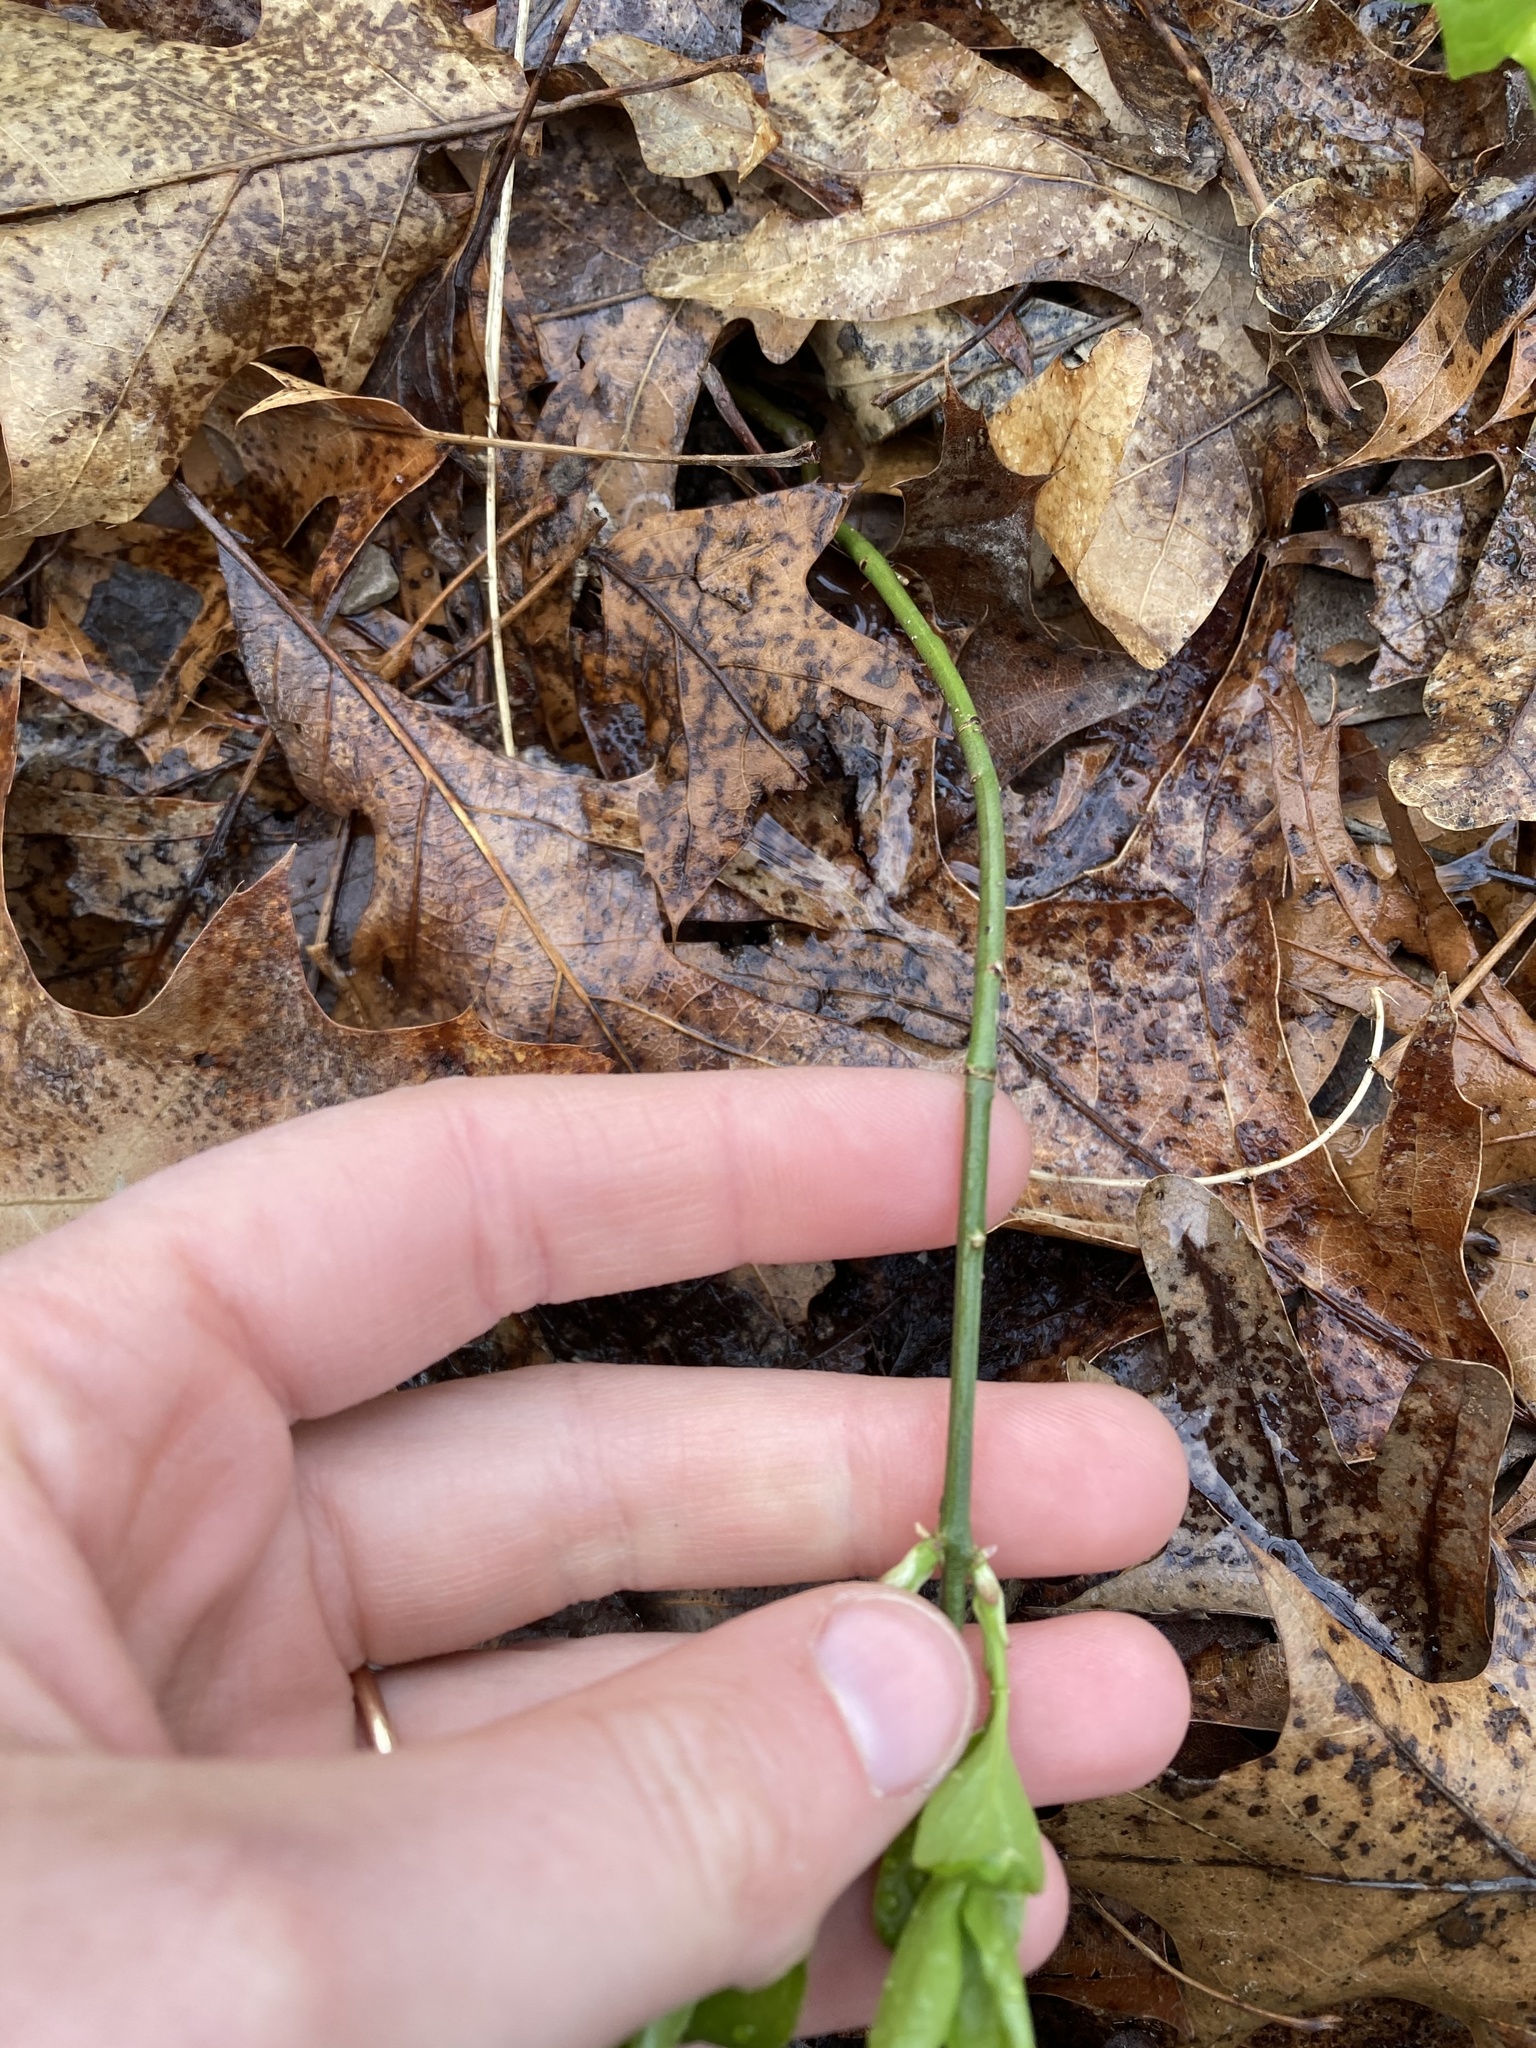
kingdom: Plantae
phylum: Tracheophyta
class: Magnoliopsida
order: Celastrales
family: Celastraceae
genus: Euonymus
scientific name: Euonymus obovatus
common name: Running strawberry-bush
